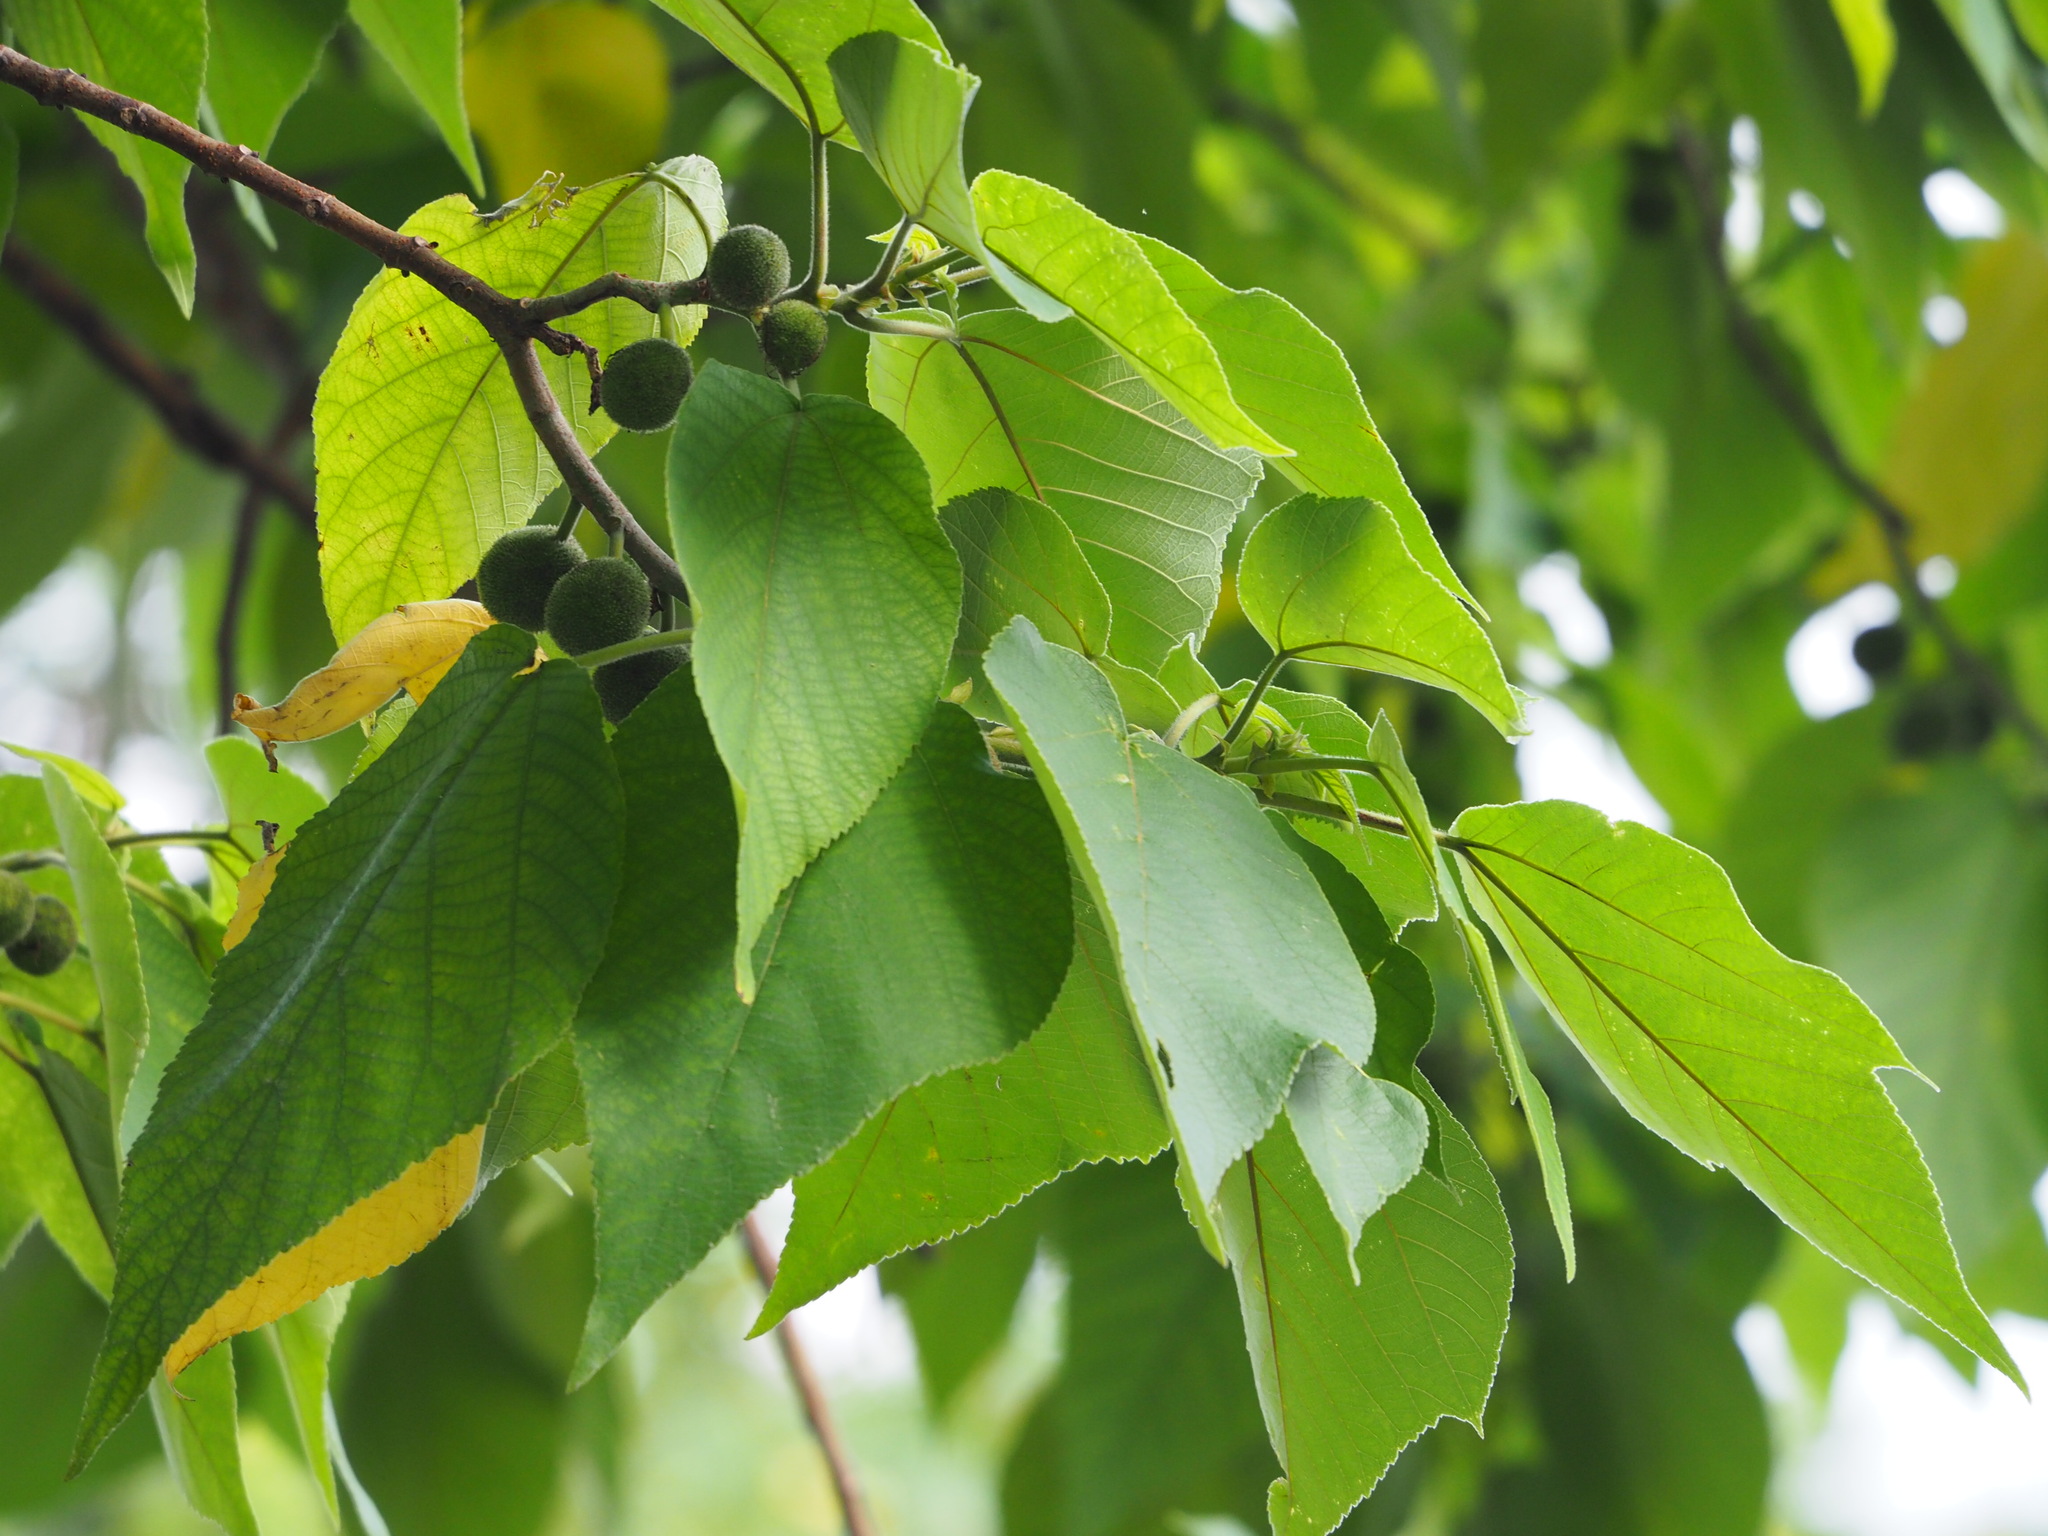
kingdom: Plantae
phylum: Tracheophyta
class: Magnoliopsida
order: Rosales
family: Moraceae
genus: Broussonetia
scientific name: Broussonetia papyrifera
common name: Paper mulberry
